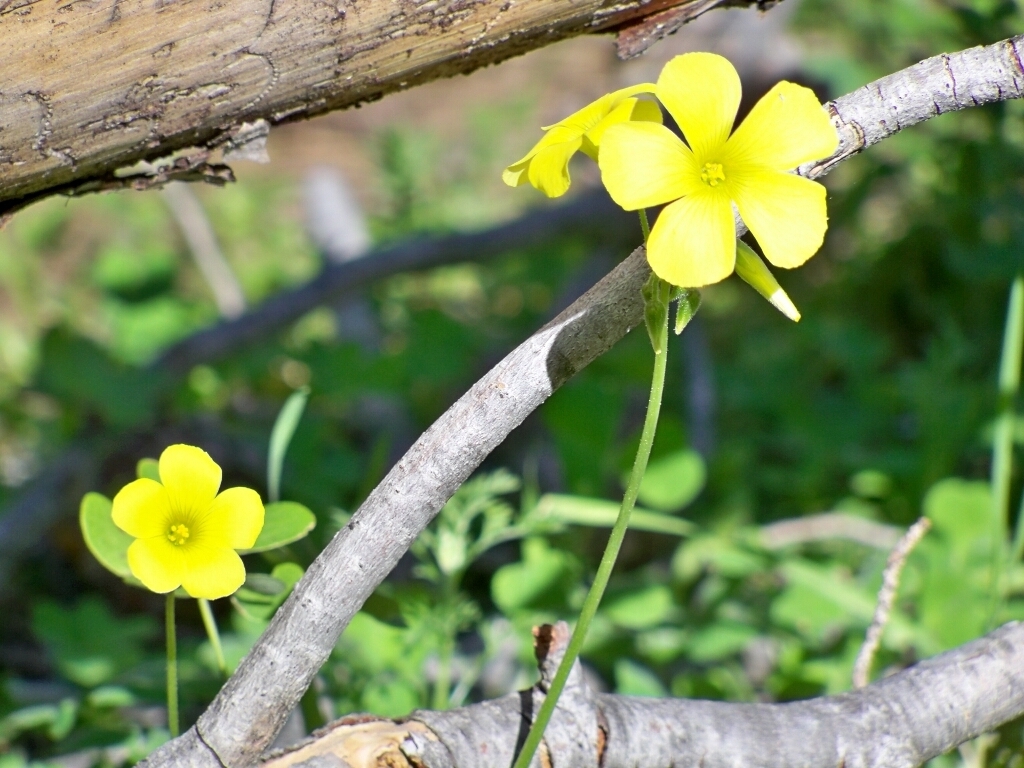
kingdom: Plantae
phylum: Tracheophyta
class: Magnoliopsida
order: Oxalidales
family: Oxalidaceae
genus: Oxalis
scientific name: Oxalis pes-caprae
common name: Bermuda-buttercup
